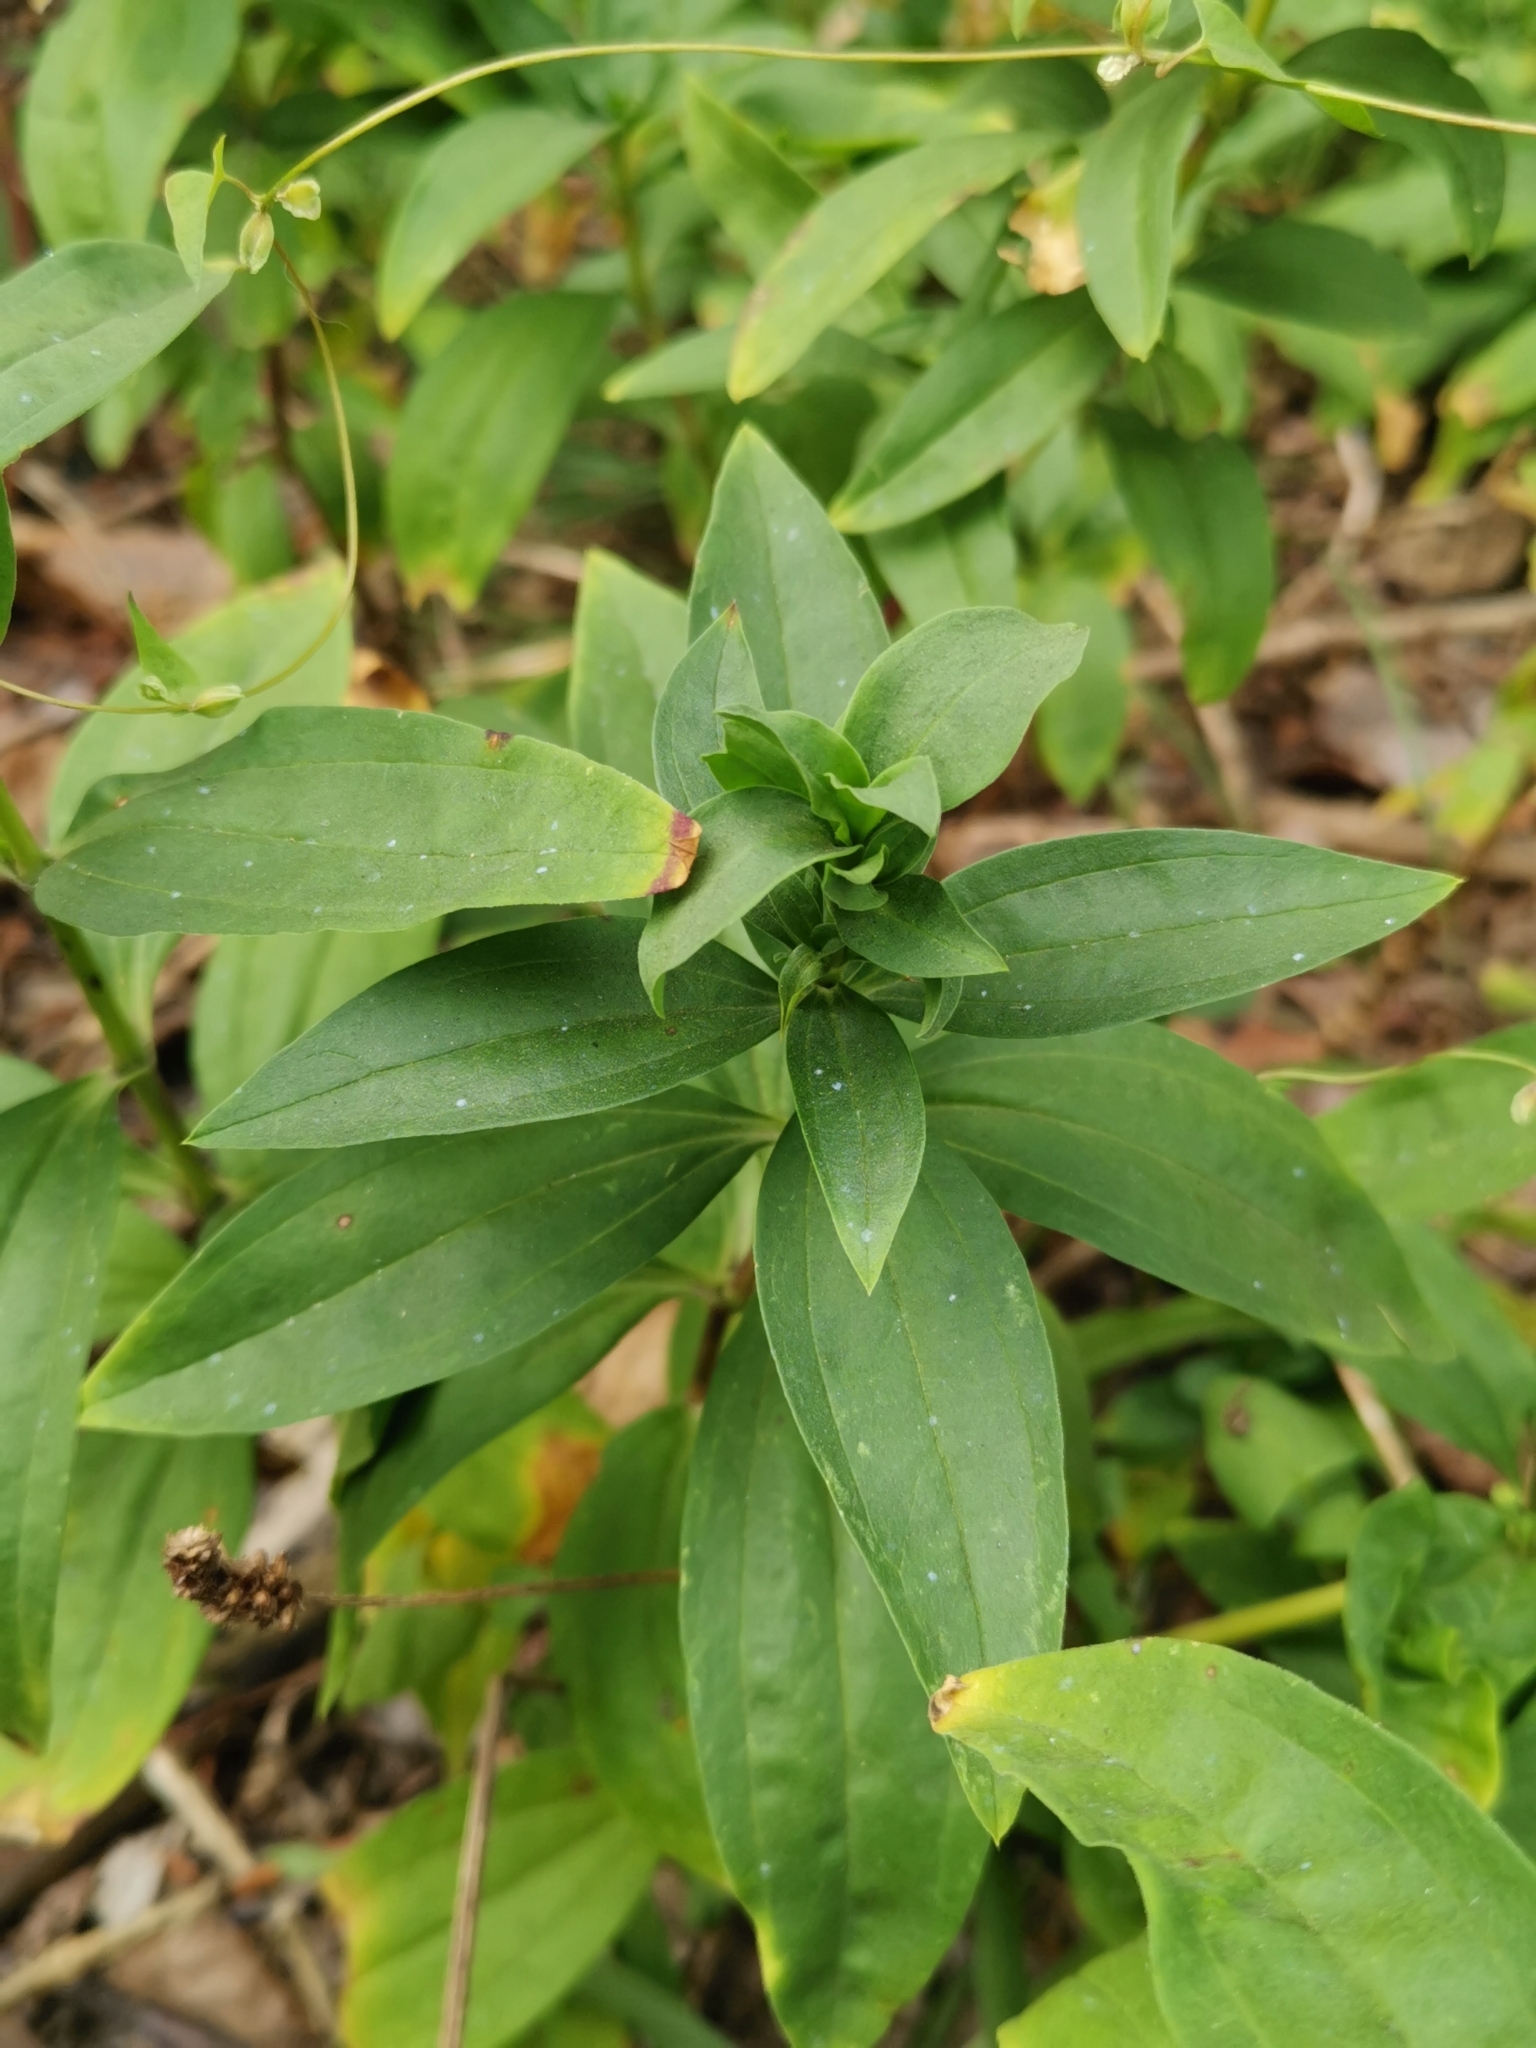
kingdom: Plantae
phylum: Tracheophyta
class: Magnoliopsida
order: Caryophyllales
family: Caryophyllaceae
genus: Saponaria
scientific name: Saponaria officinalis
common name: Soapwort
